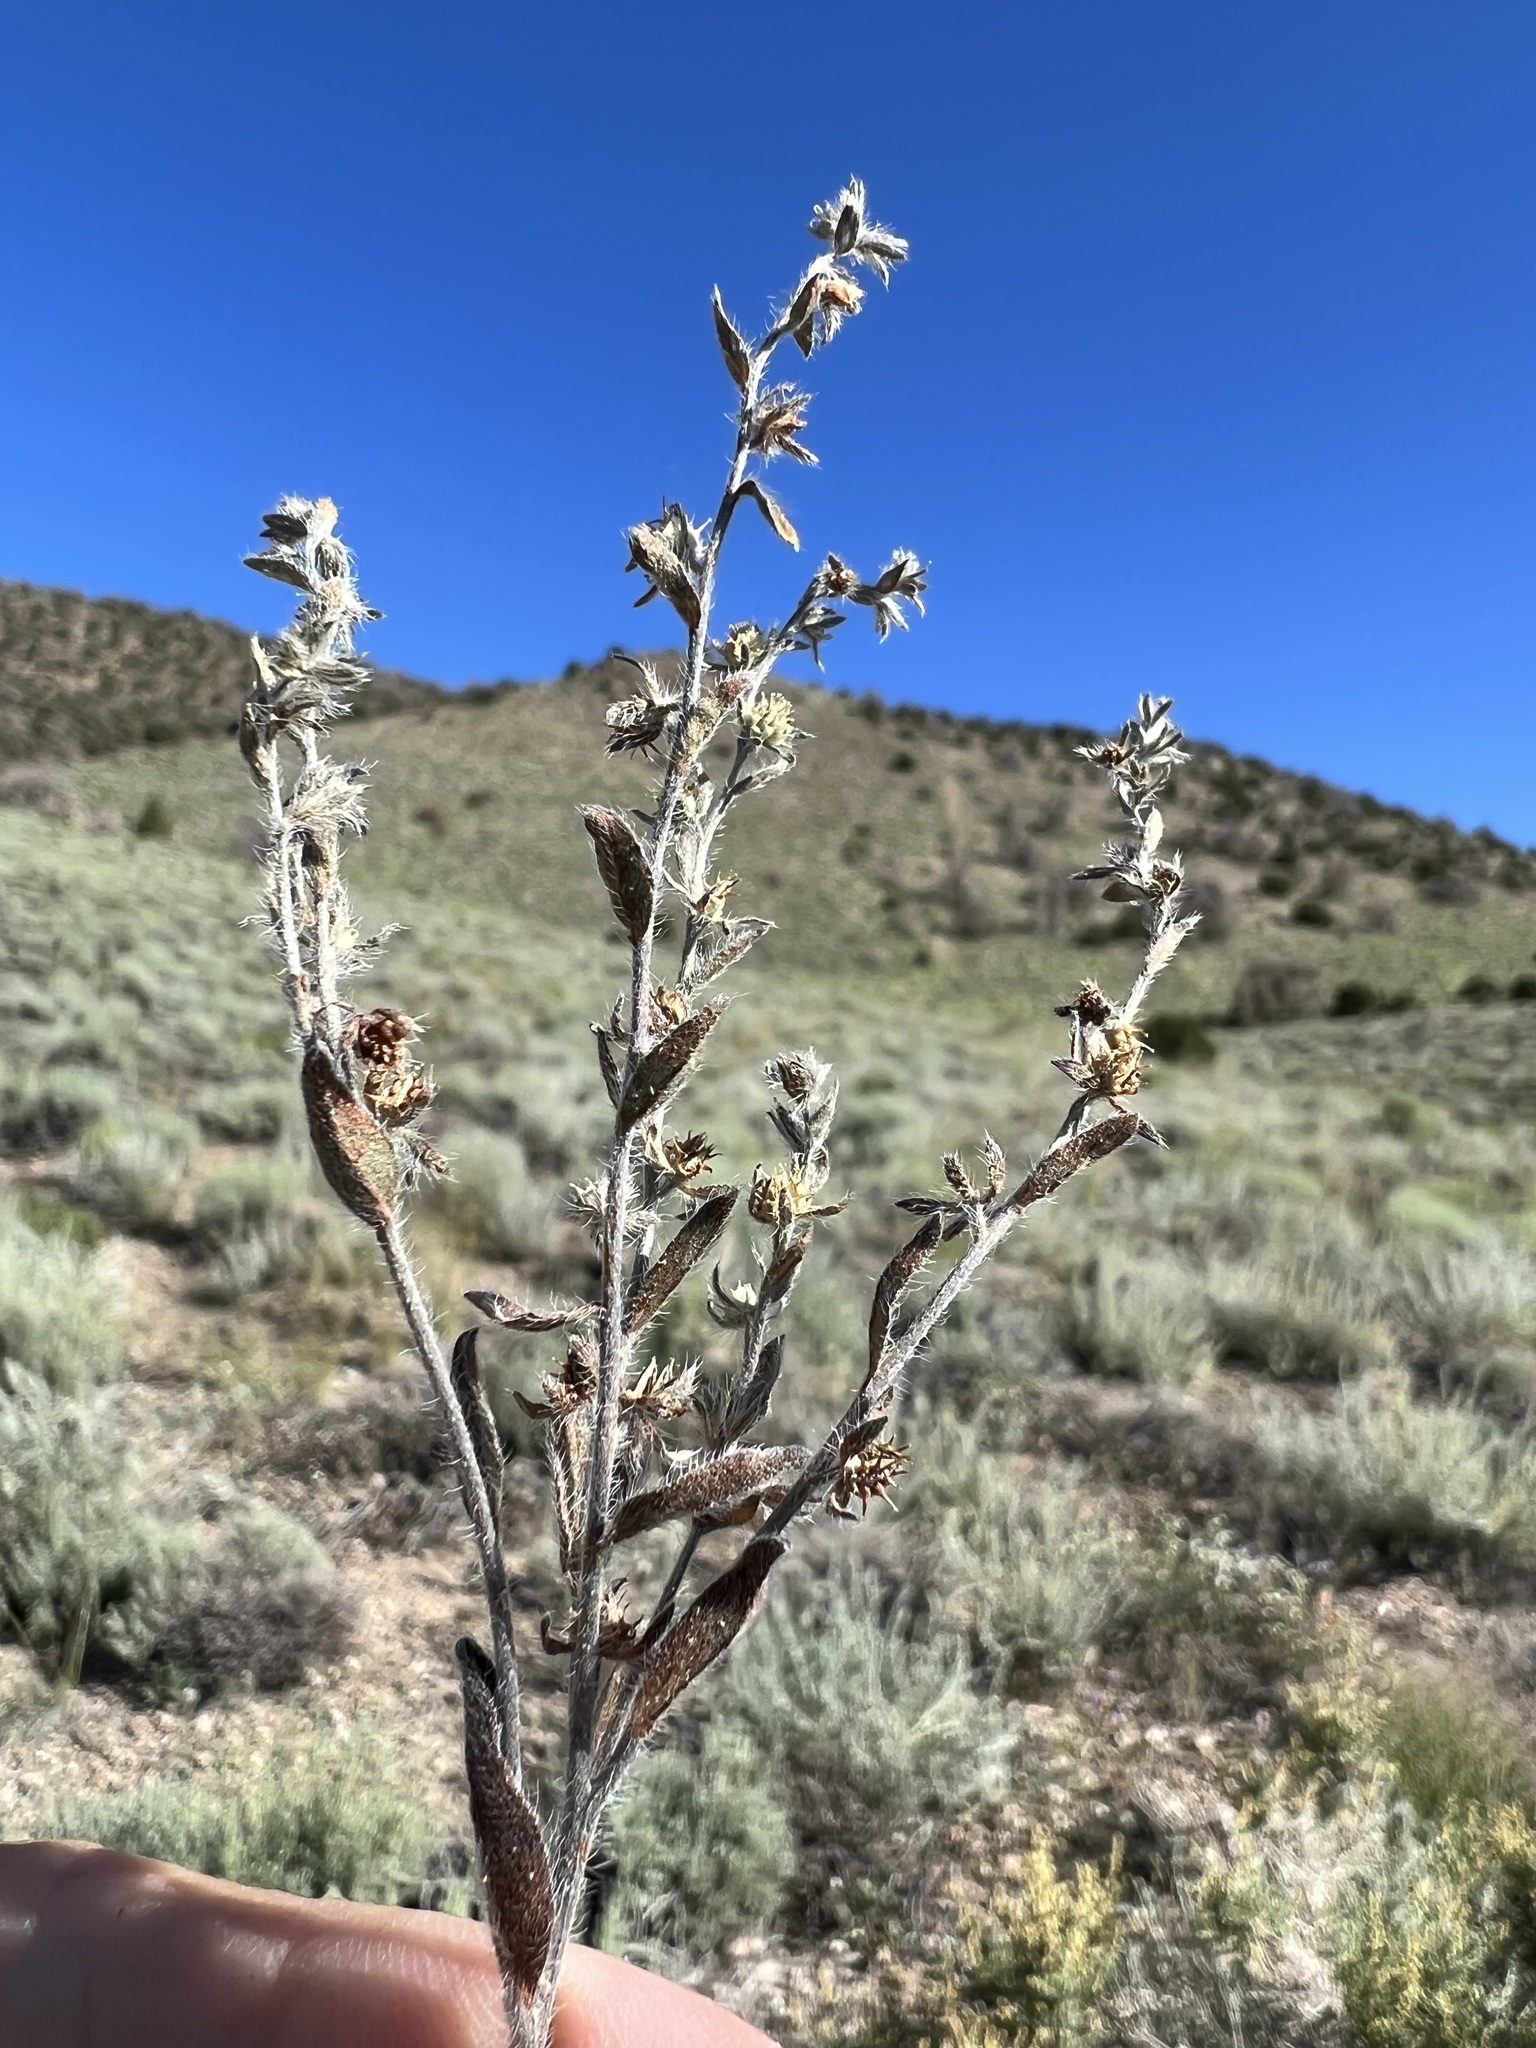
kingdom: Plantae
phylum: Tracheophyta
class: Magnoliopsida
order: Boraginales
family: Boraginaceae
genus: Lappula
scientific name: Lappula occidentalis
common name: Western stickseed
